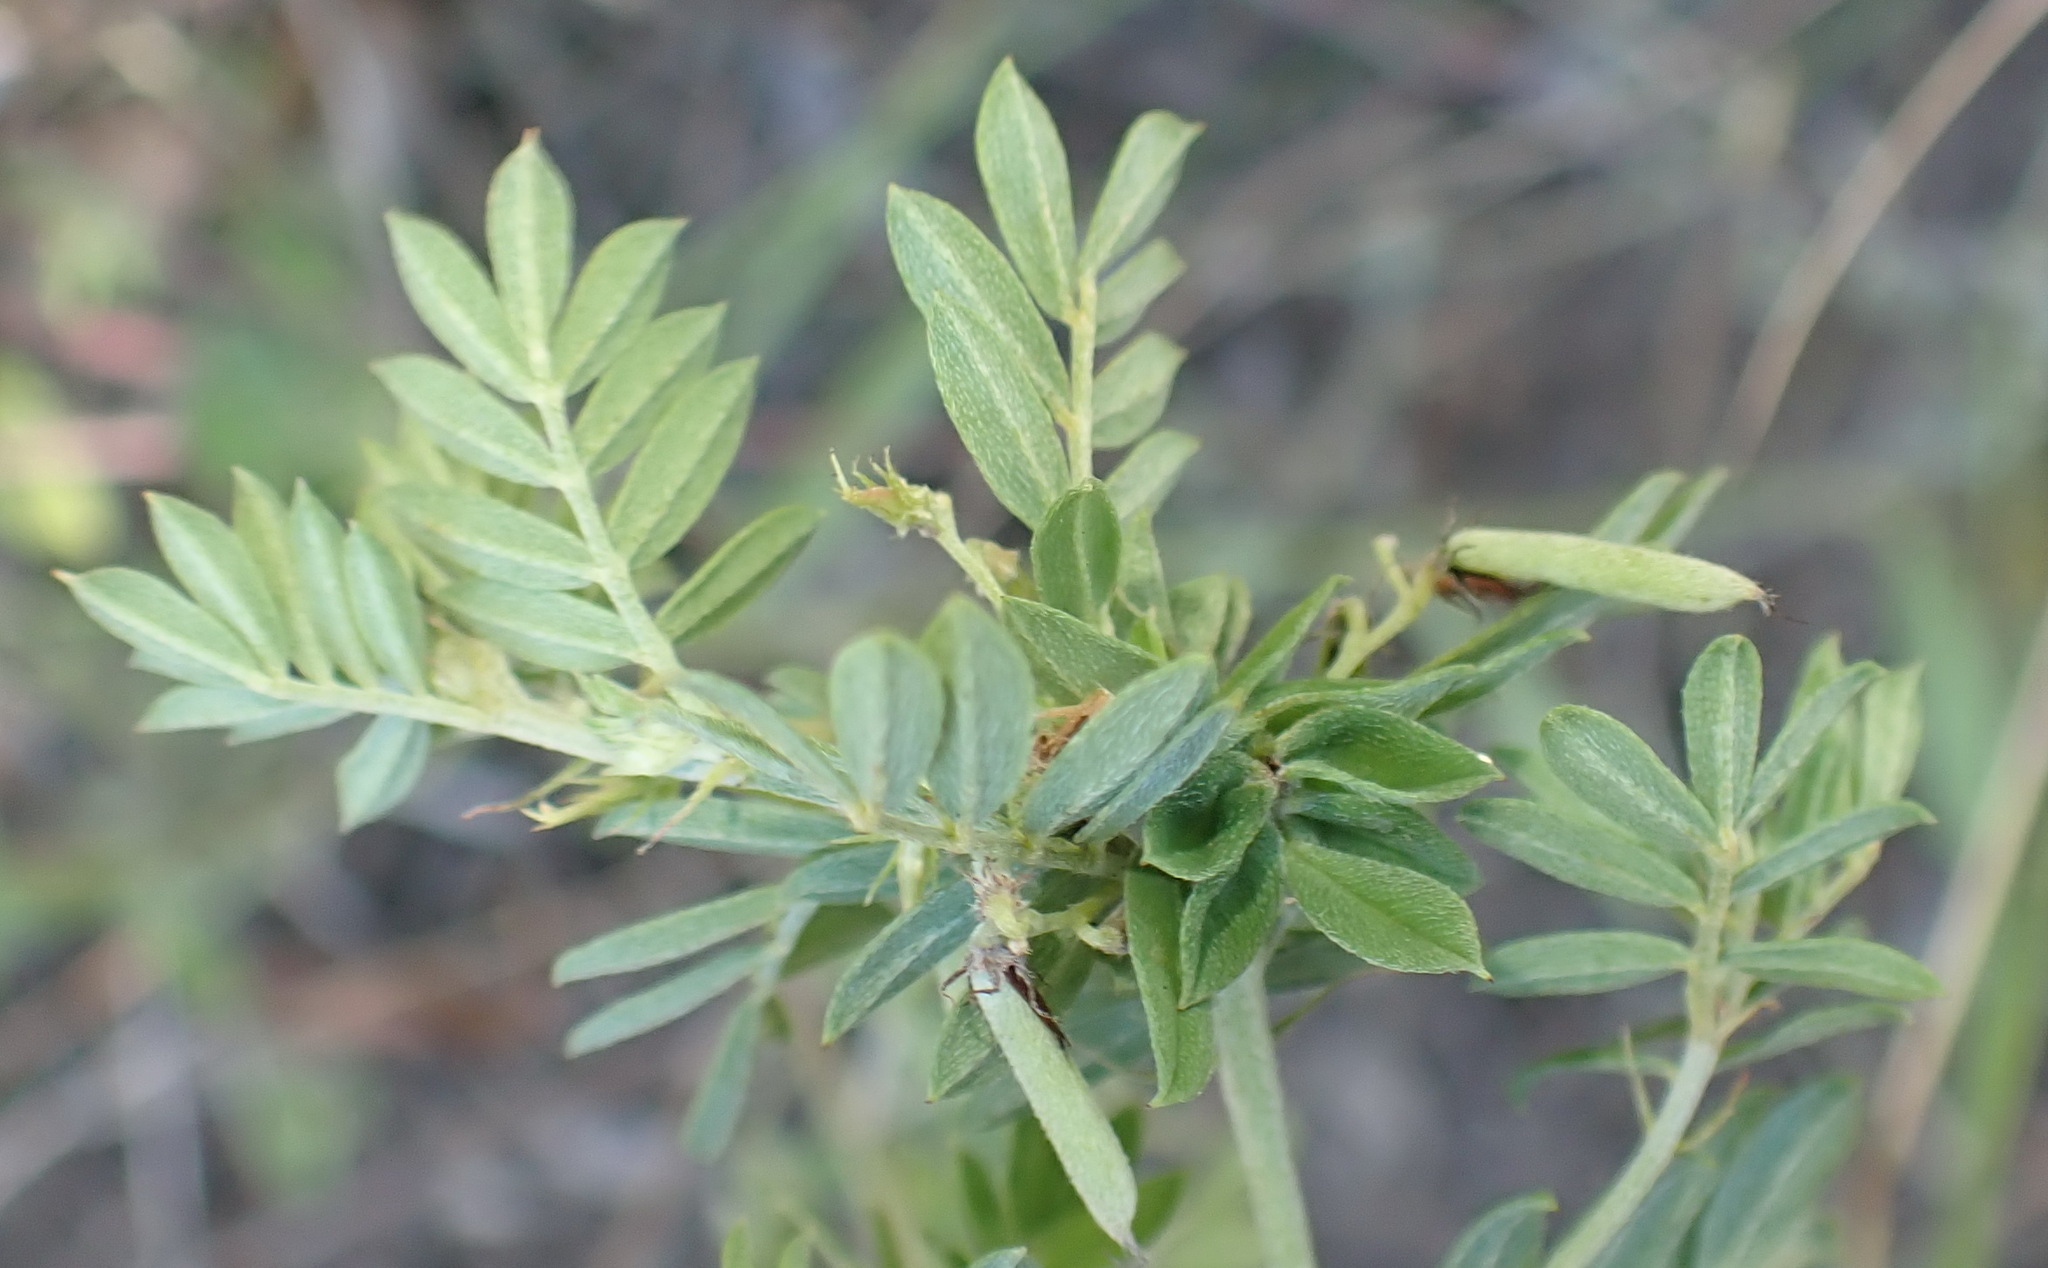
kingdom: Plantae
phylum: Tracheophyta
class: Magnoliopsida
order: Fabales
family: Fabaceae
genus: Indigofera
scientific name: Indigofera poliotes
